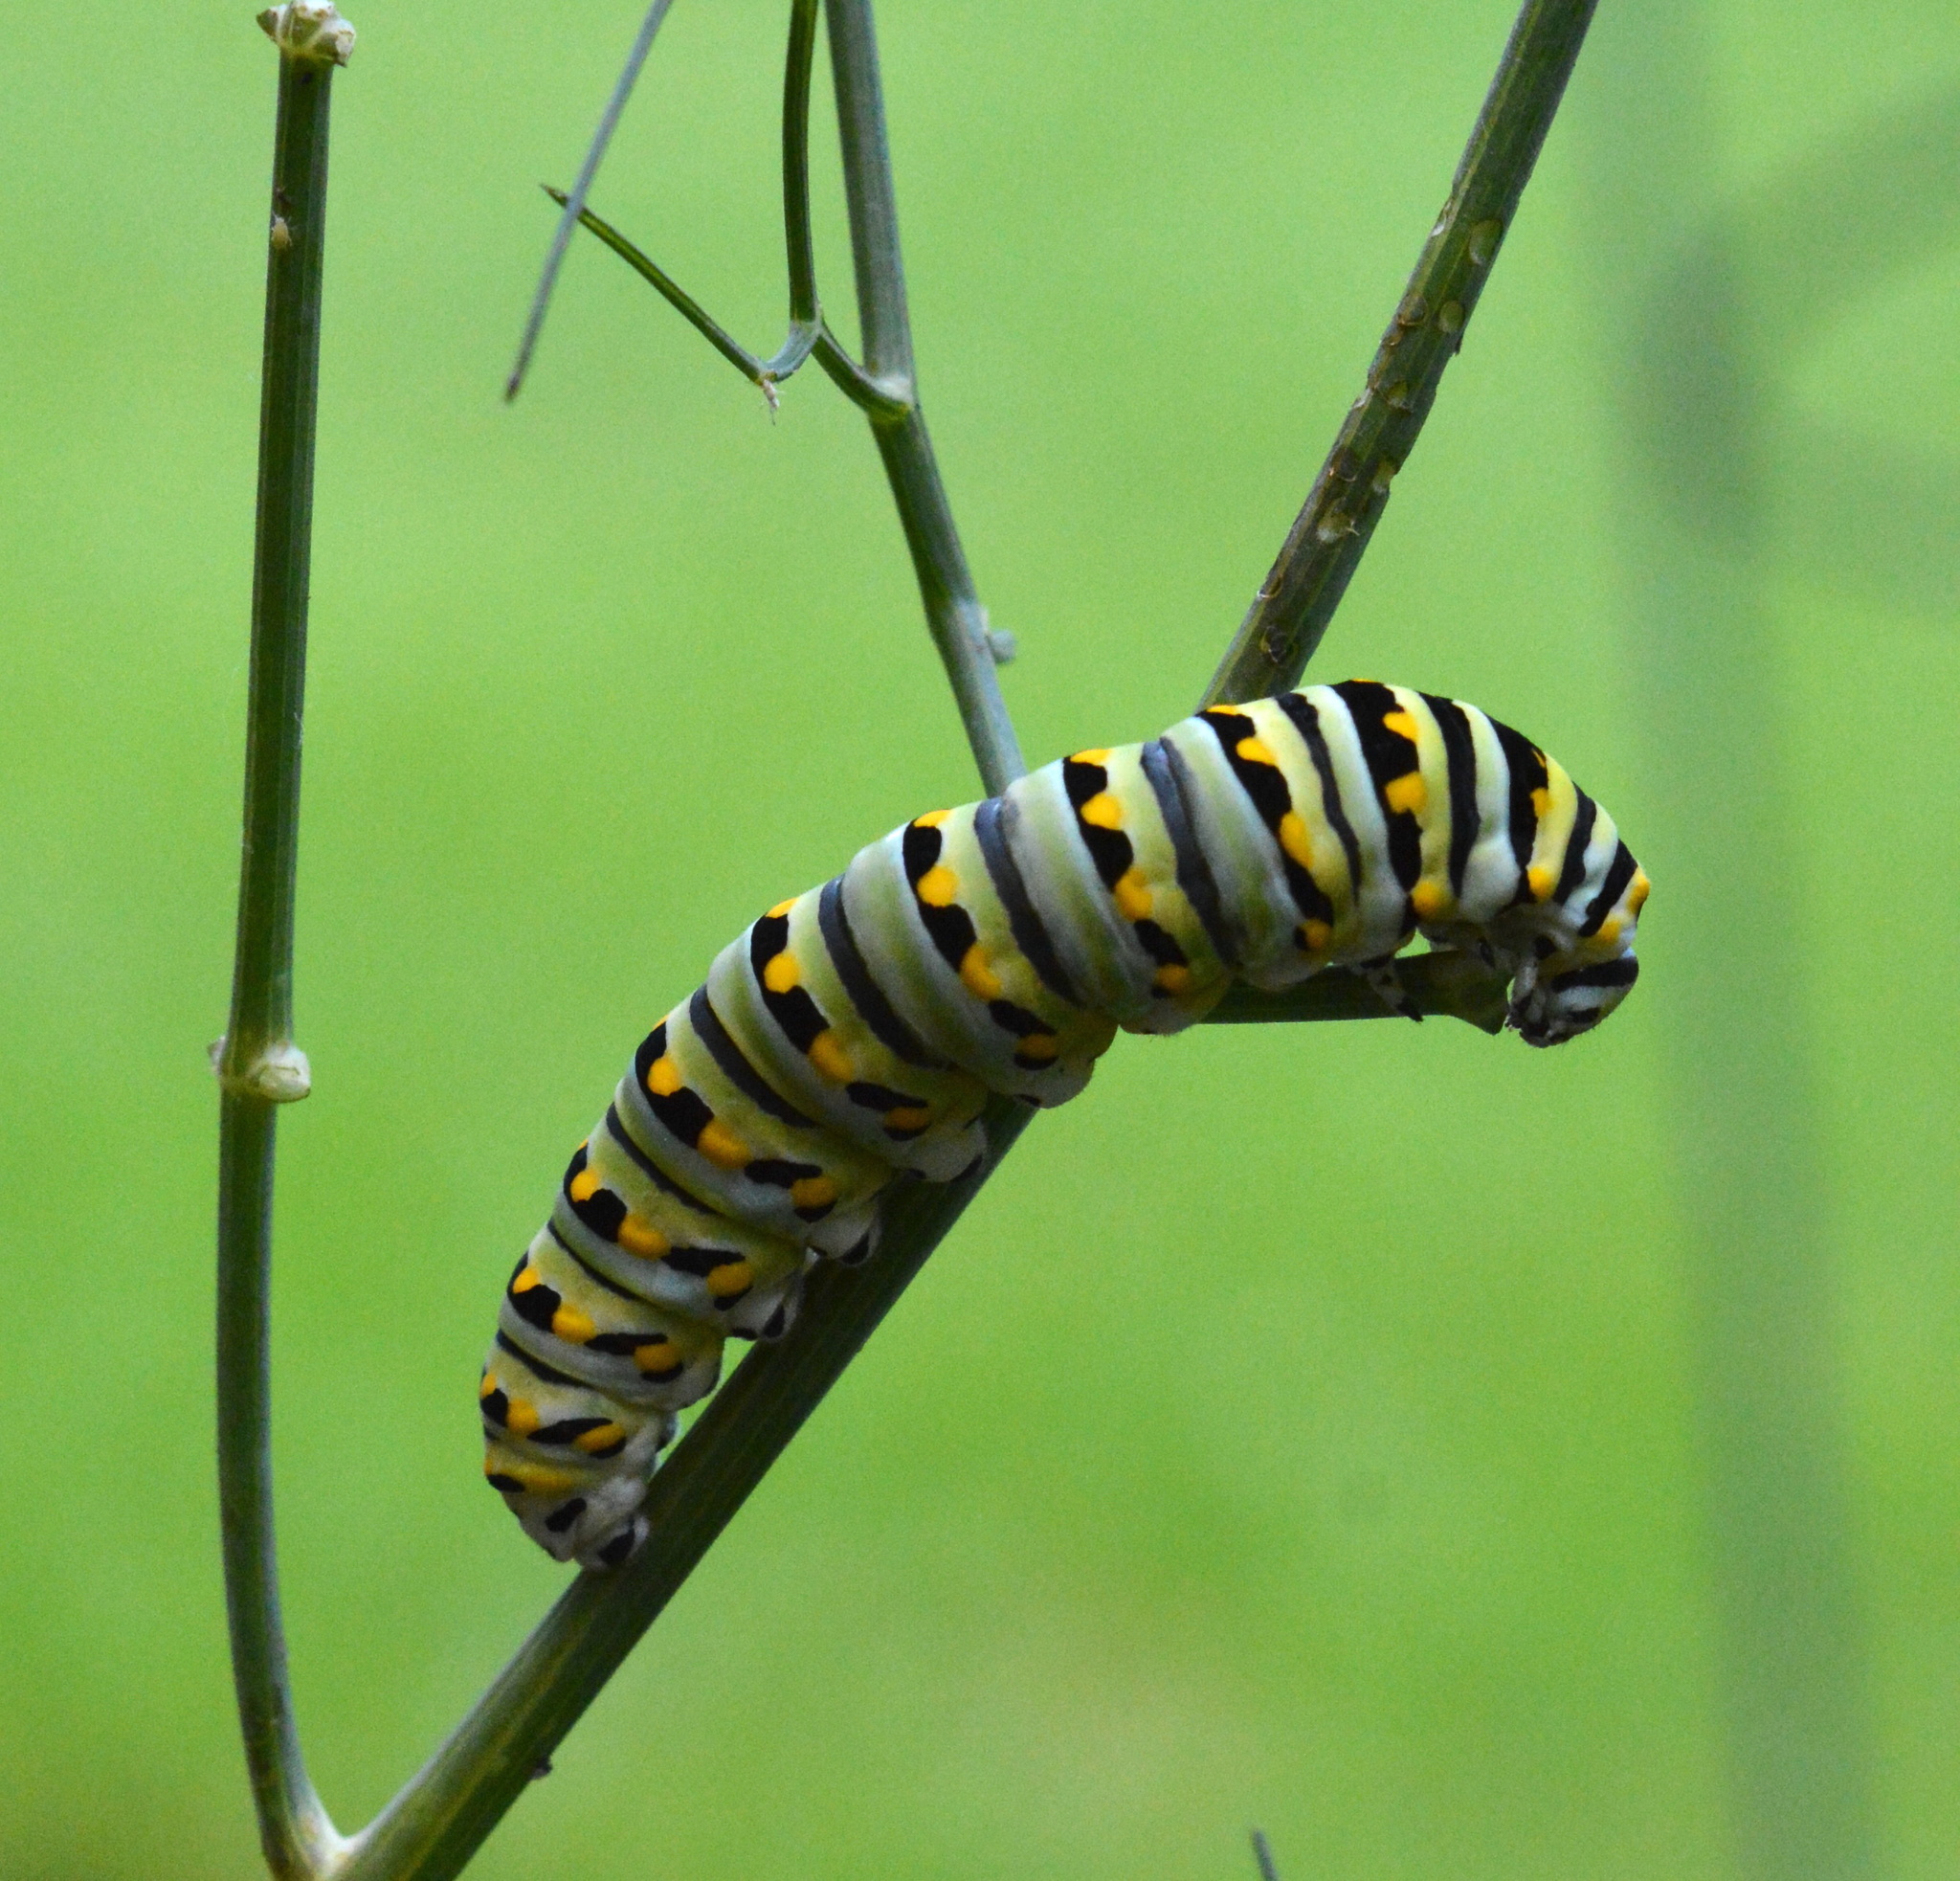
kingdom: Animalia
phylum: Arthropoda
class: Insecta
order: Lepidoptera
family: Papilionidae
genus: Papilio
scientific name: Papilio polyxenes
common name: Black swallowtail
